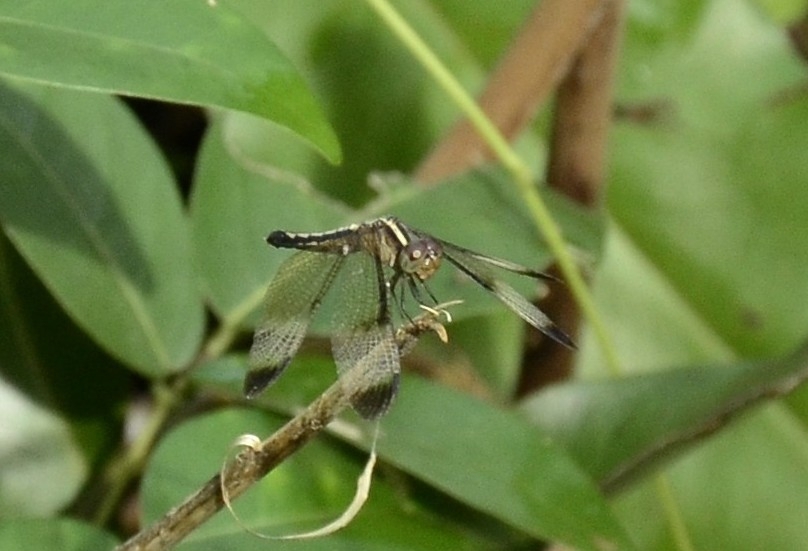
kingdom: Animalia
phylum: Arthropoda
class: Insecta
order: Odonata
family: Libellulidae
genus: Neurothemis
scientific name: Neurothemis tullia
